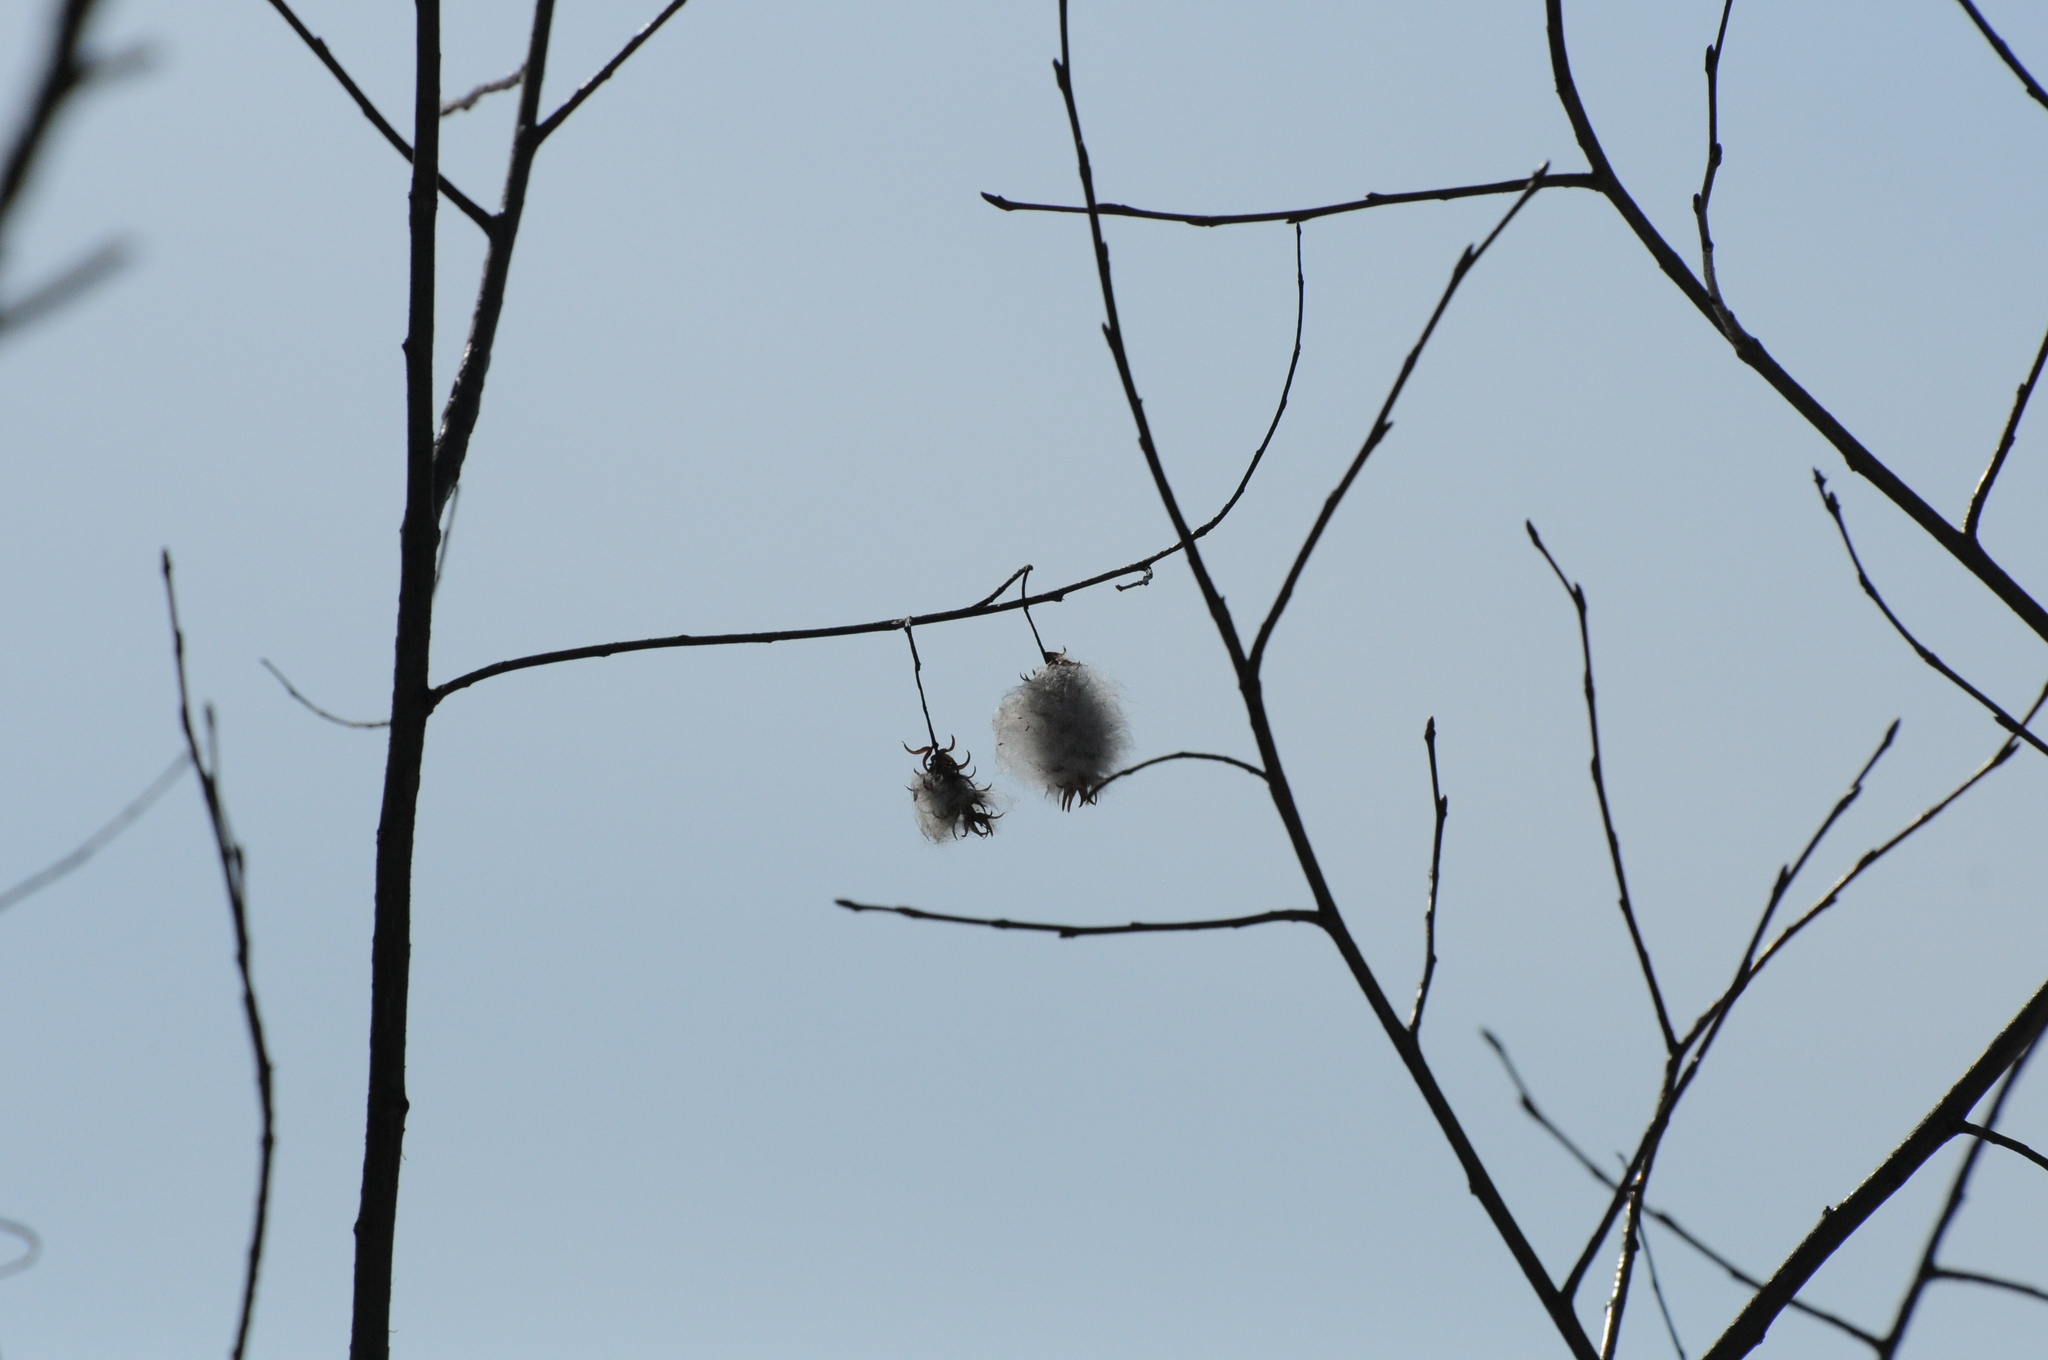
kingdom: Plantae
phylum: Tracheophyta
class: Magnoliopsida
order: Malpighiales
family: Salicaceae
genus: Salix
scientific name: Salix pentandra
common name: Bay willow
